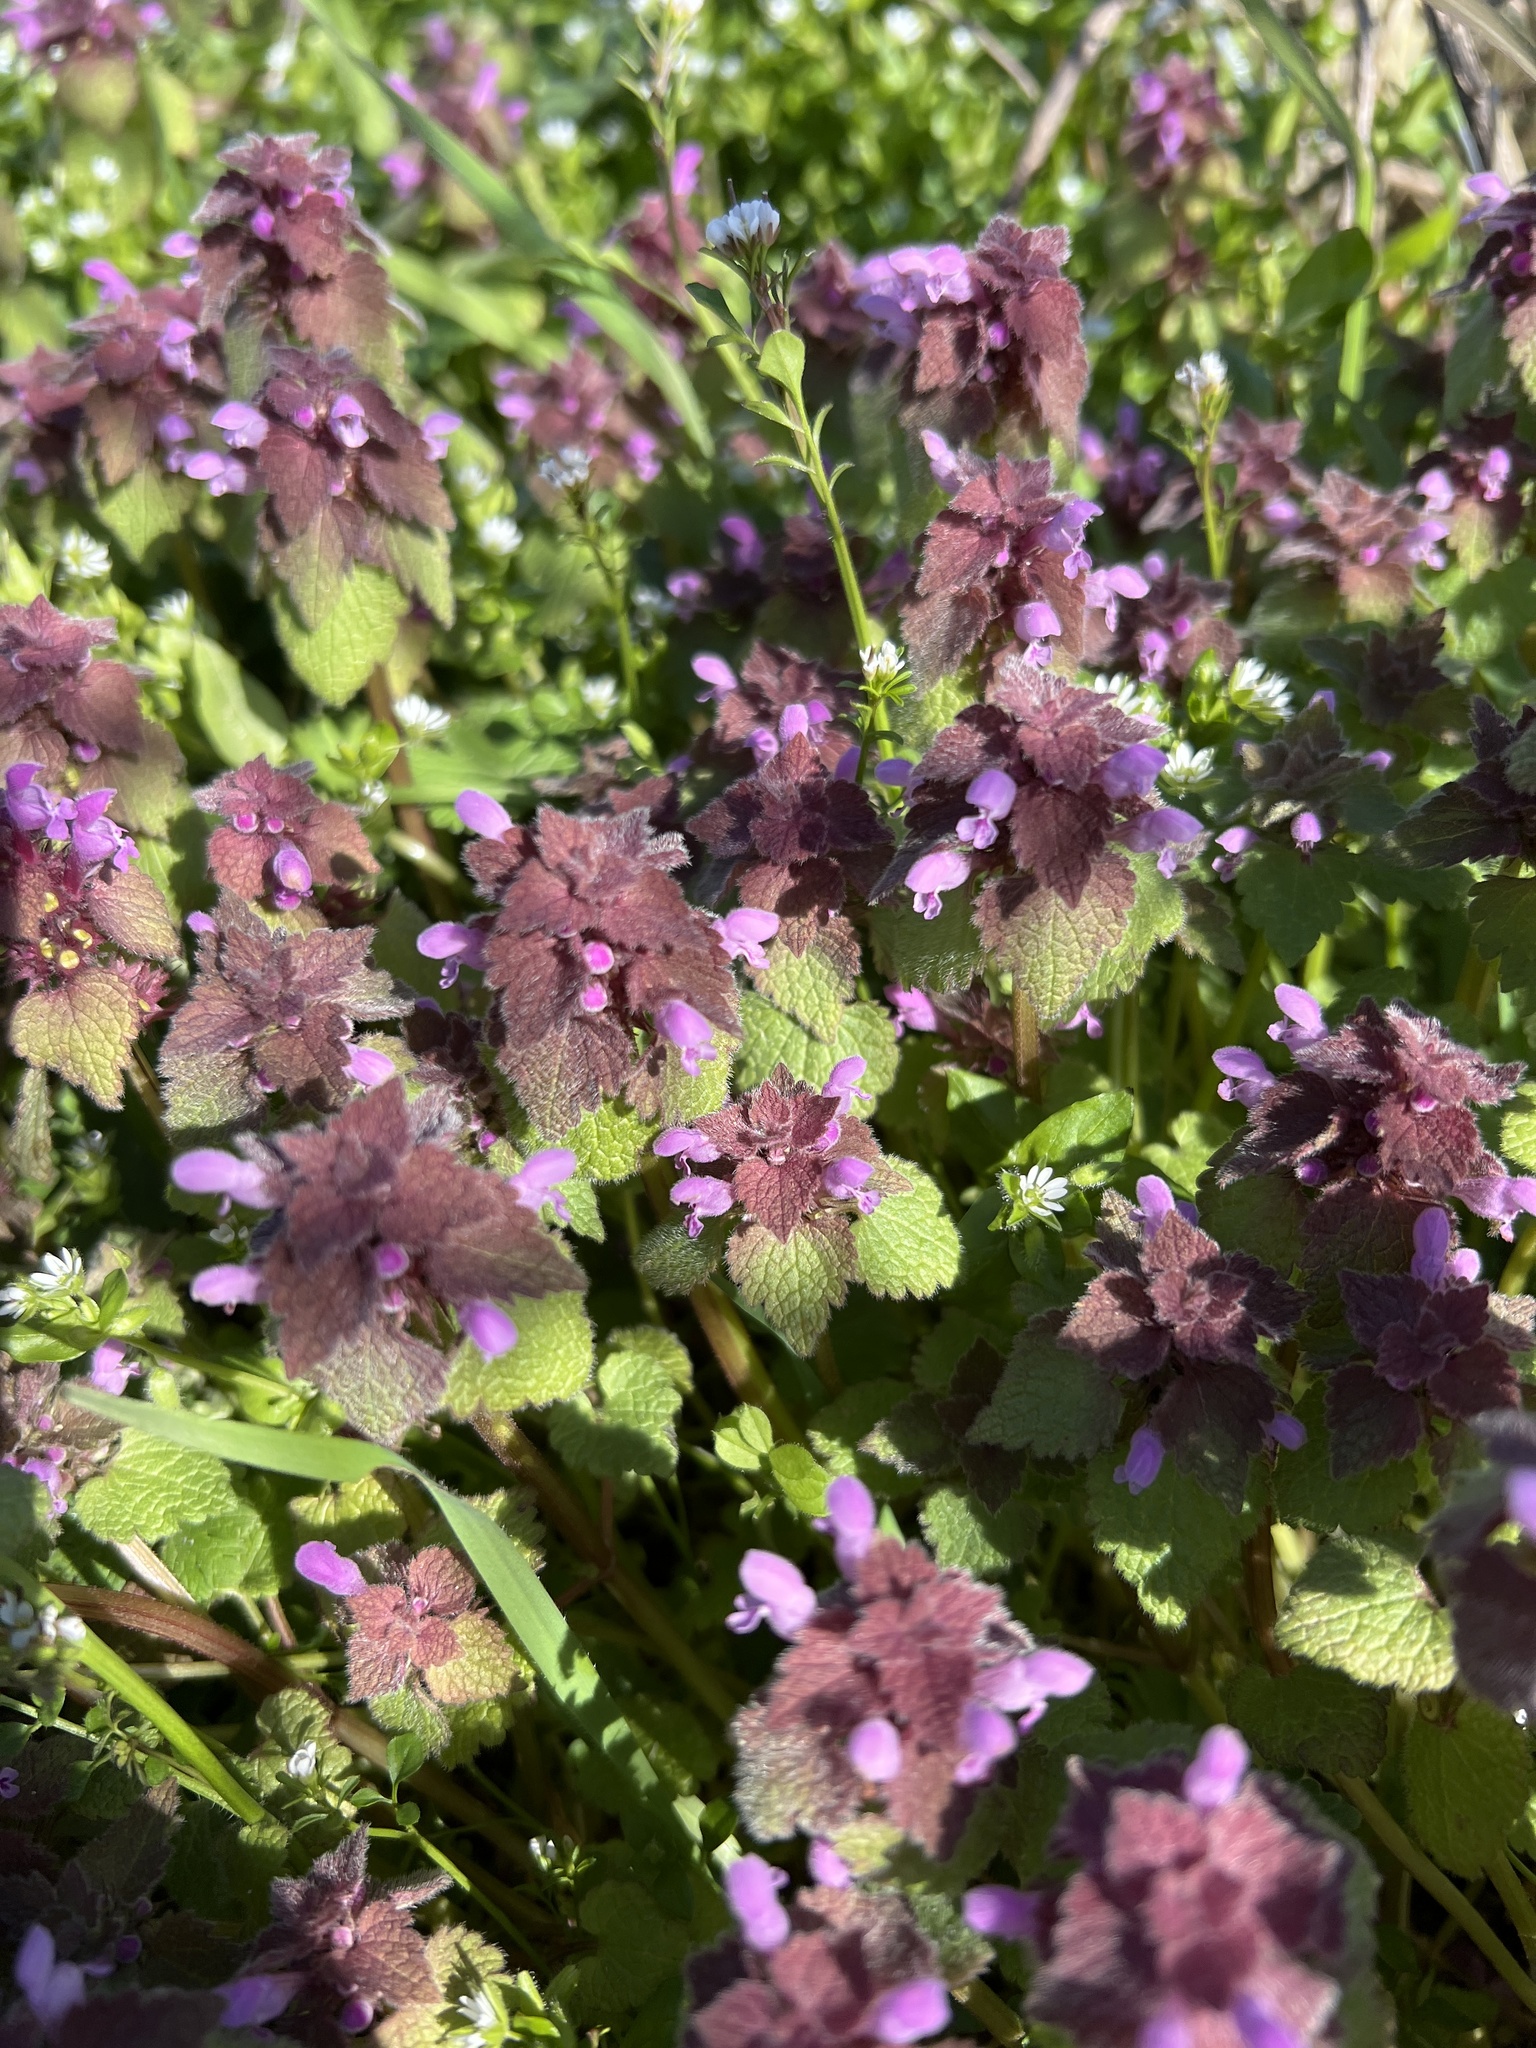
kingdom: Plantae
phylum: Tracheophyta
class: Magnoliopsida
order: Lamiales
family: Lamiaceae
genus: Lamium
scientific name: Lamium purpureum
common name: Red dead-nettle
